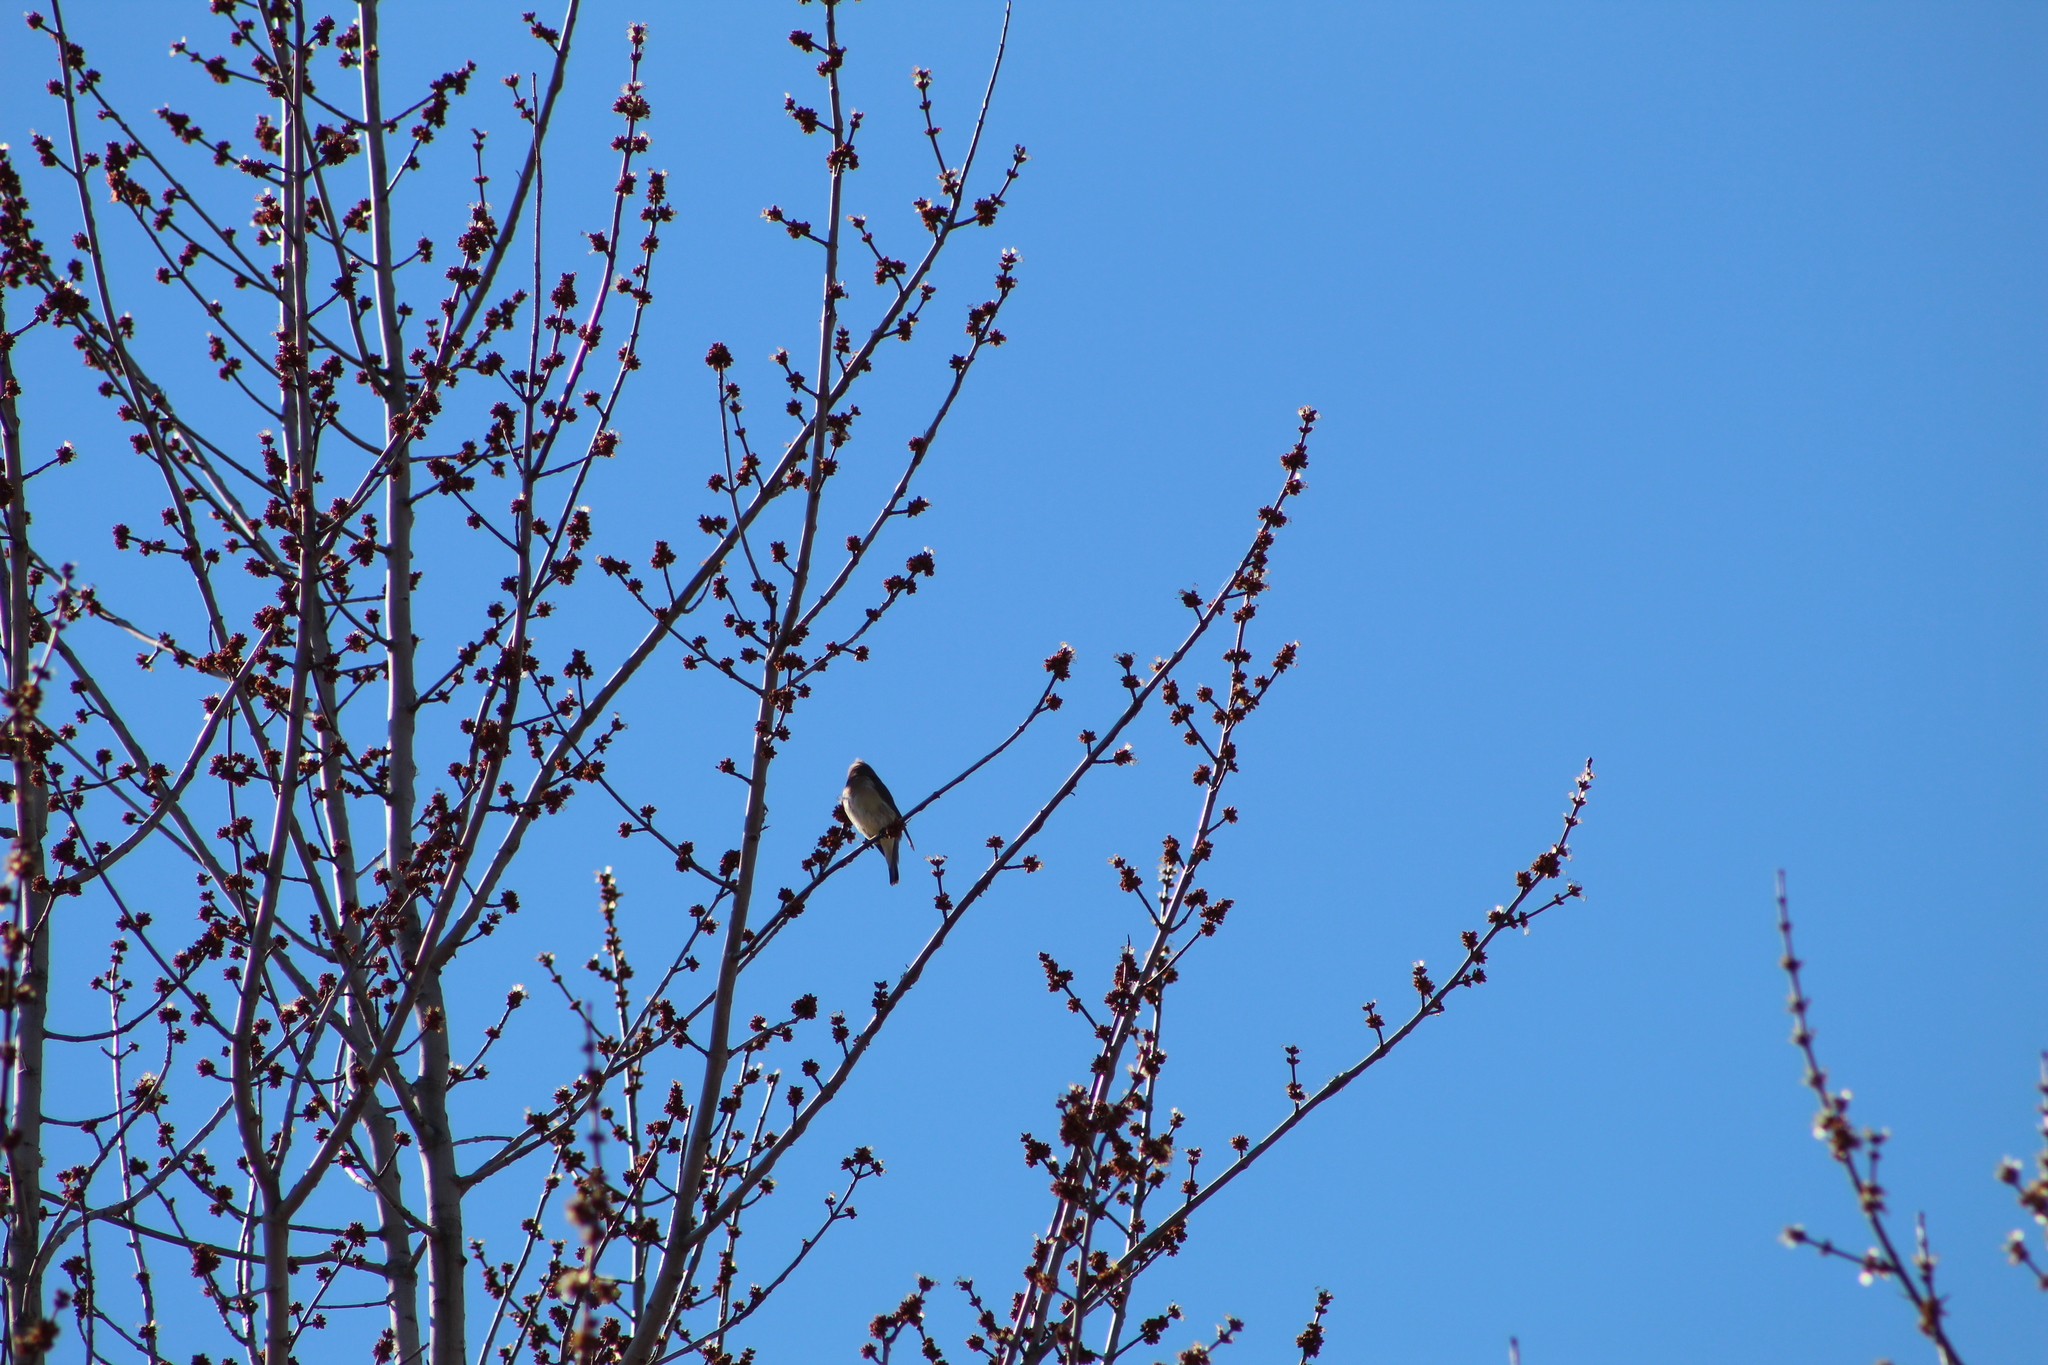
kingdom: Animalia
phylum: Chordata
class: Aves
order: Passeriformes
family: Bombycillidae
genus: Bombycilla
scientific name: Bombycilla cedrorum
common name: Cedar waxwing
